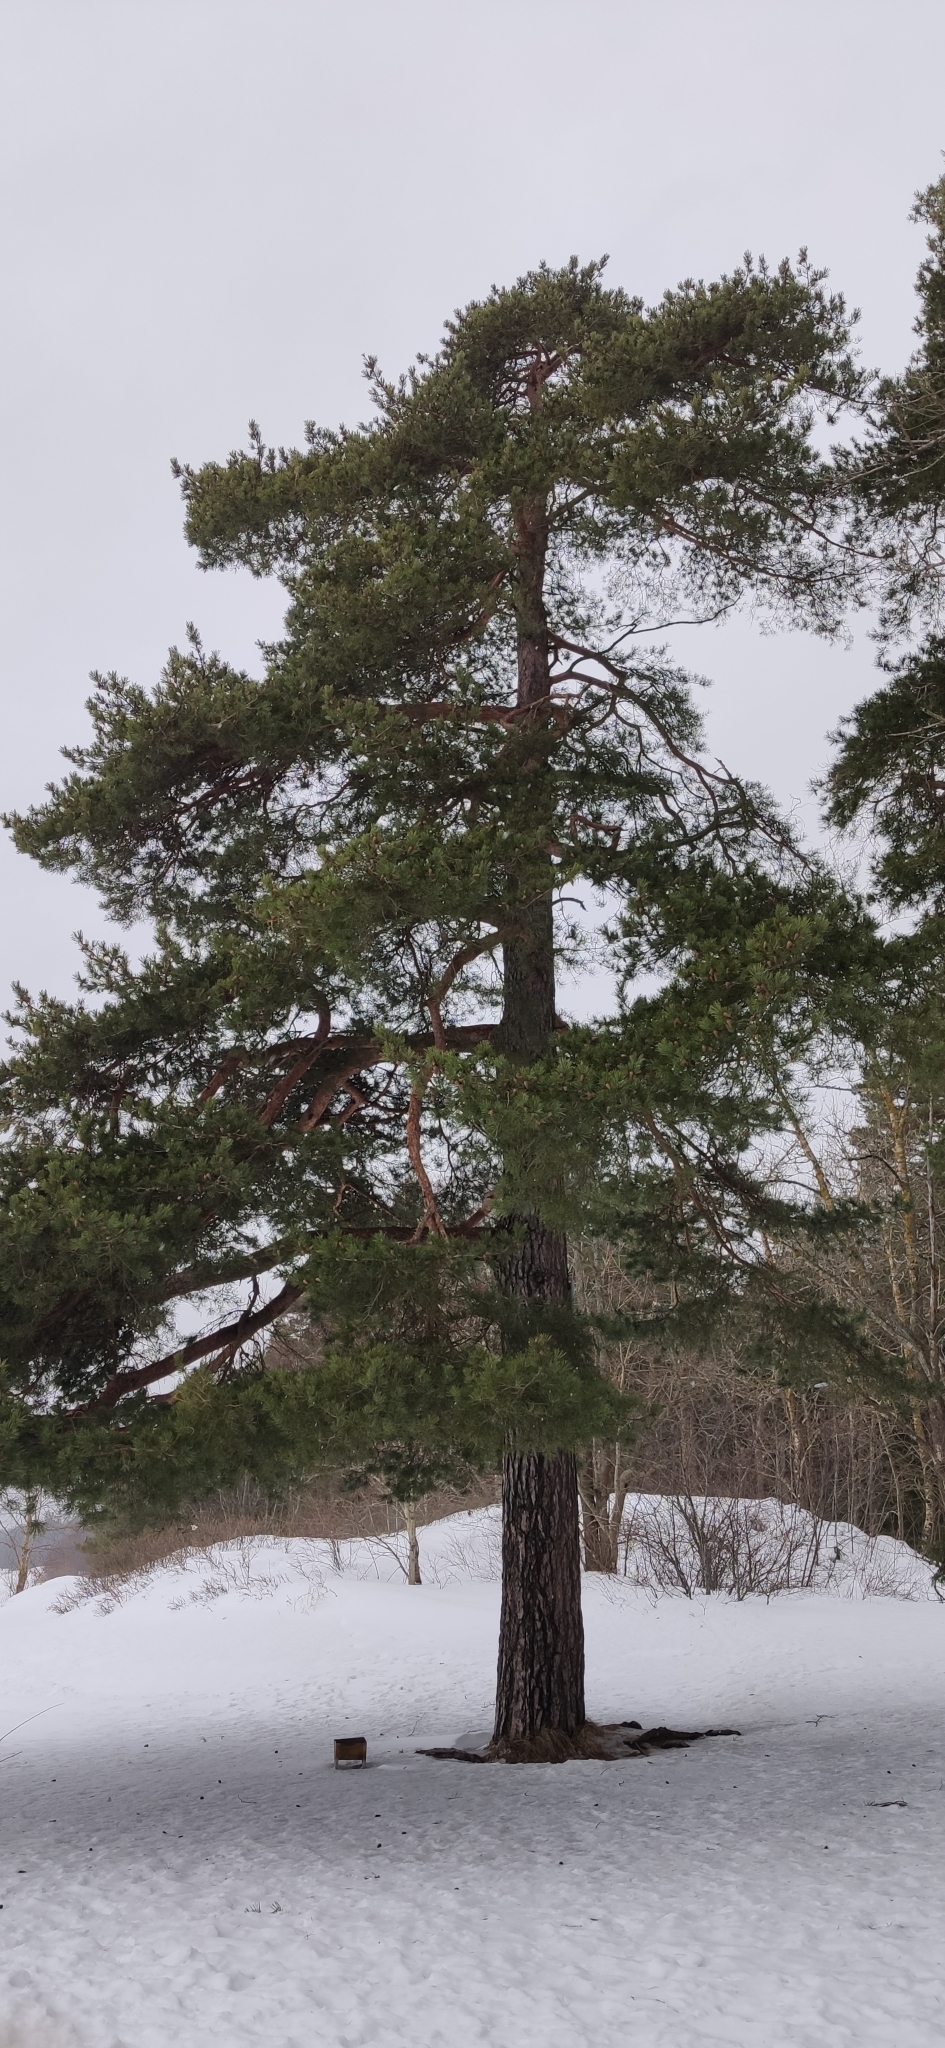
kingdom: Plantae
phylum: Tracheophyta
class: Pinopsida
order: Pinales
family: Pinaceae
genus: Pinus
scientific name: Pinus sylvestris
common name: Scots pine
